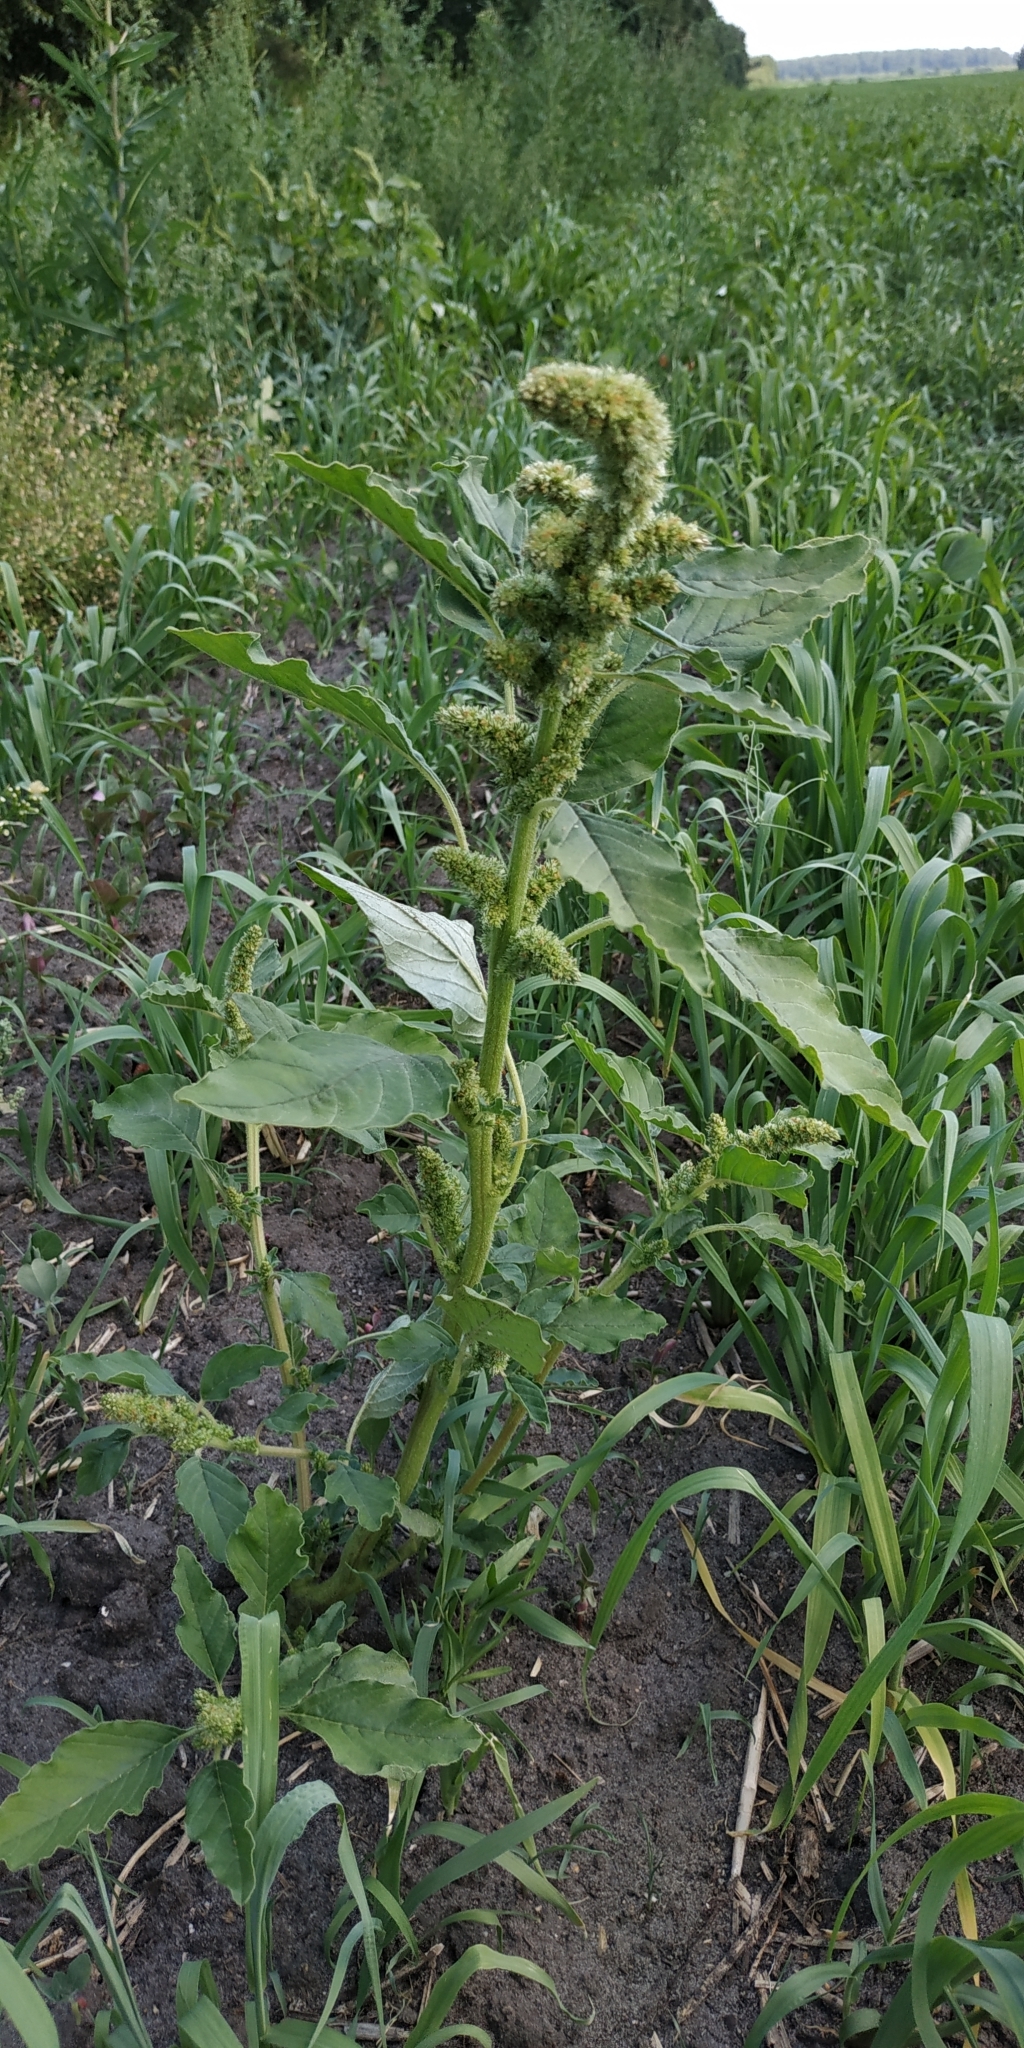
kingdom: Plantae
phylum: Tracheophyta
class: Magnoliopsida
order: Caryophyllales
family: Amaranthaceae
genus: Amaranthus
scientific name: Amaranthus retroflexus
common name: Redroot amaranth
